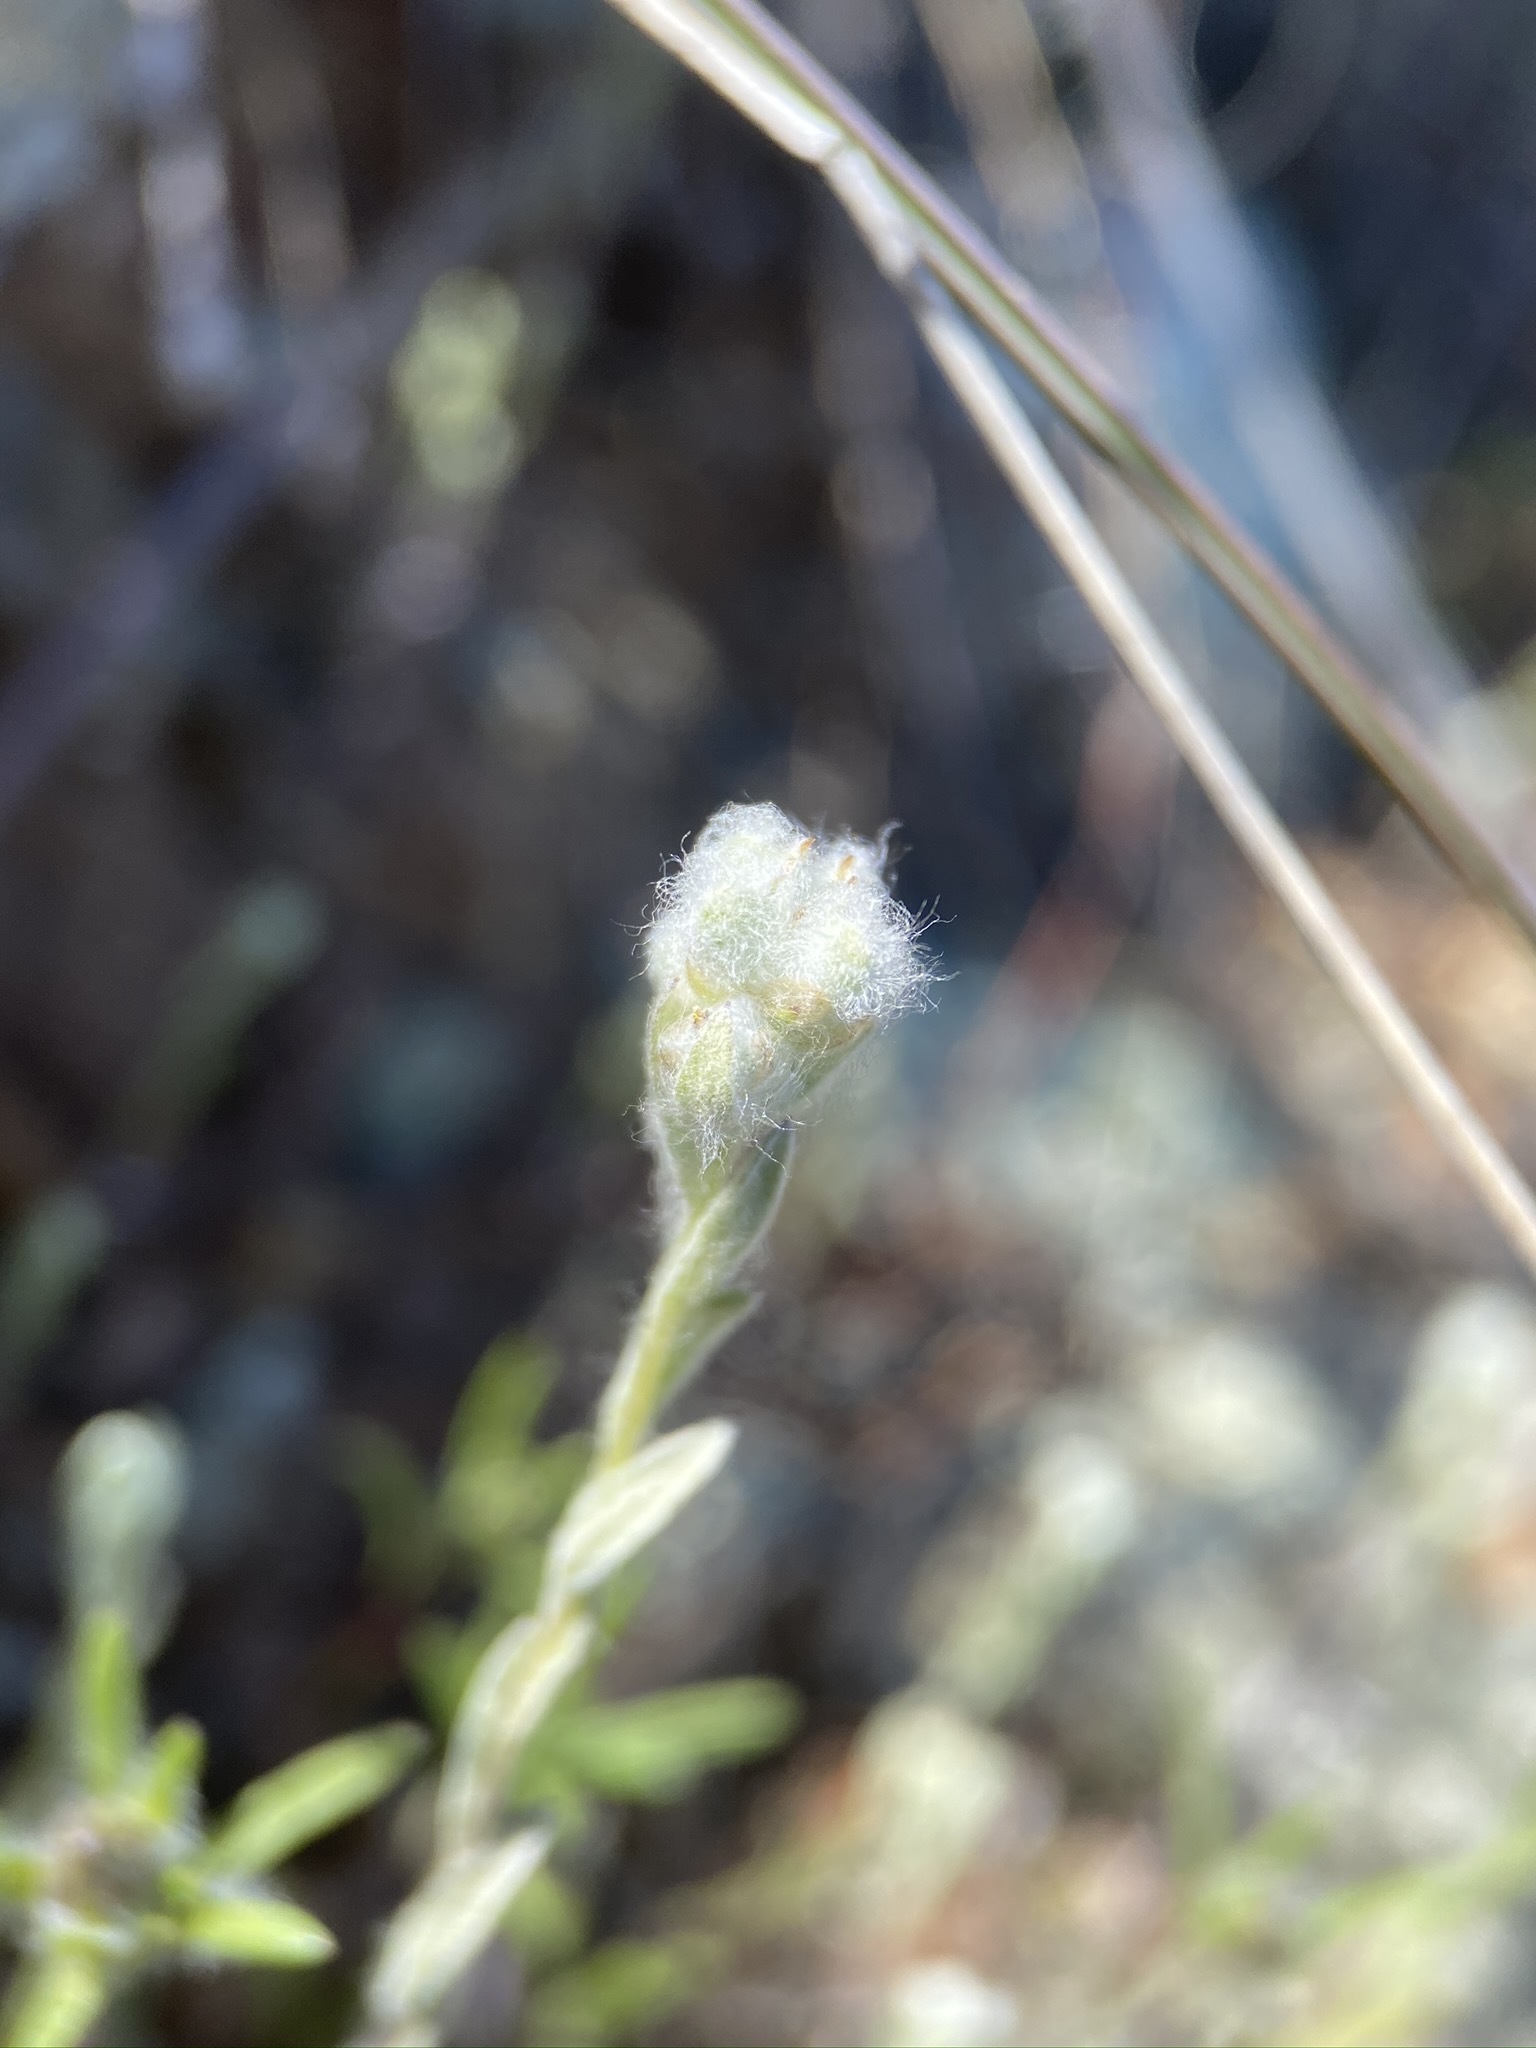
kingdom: Plantae
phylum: Tracheophyta
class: Magnoliopsida
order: Asterales
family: Asteraceae
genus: Bombycilaena
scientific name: Bombycilaena californica
